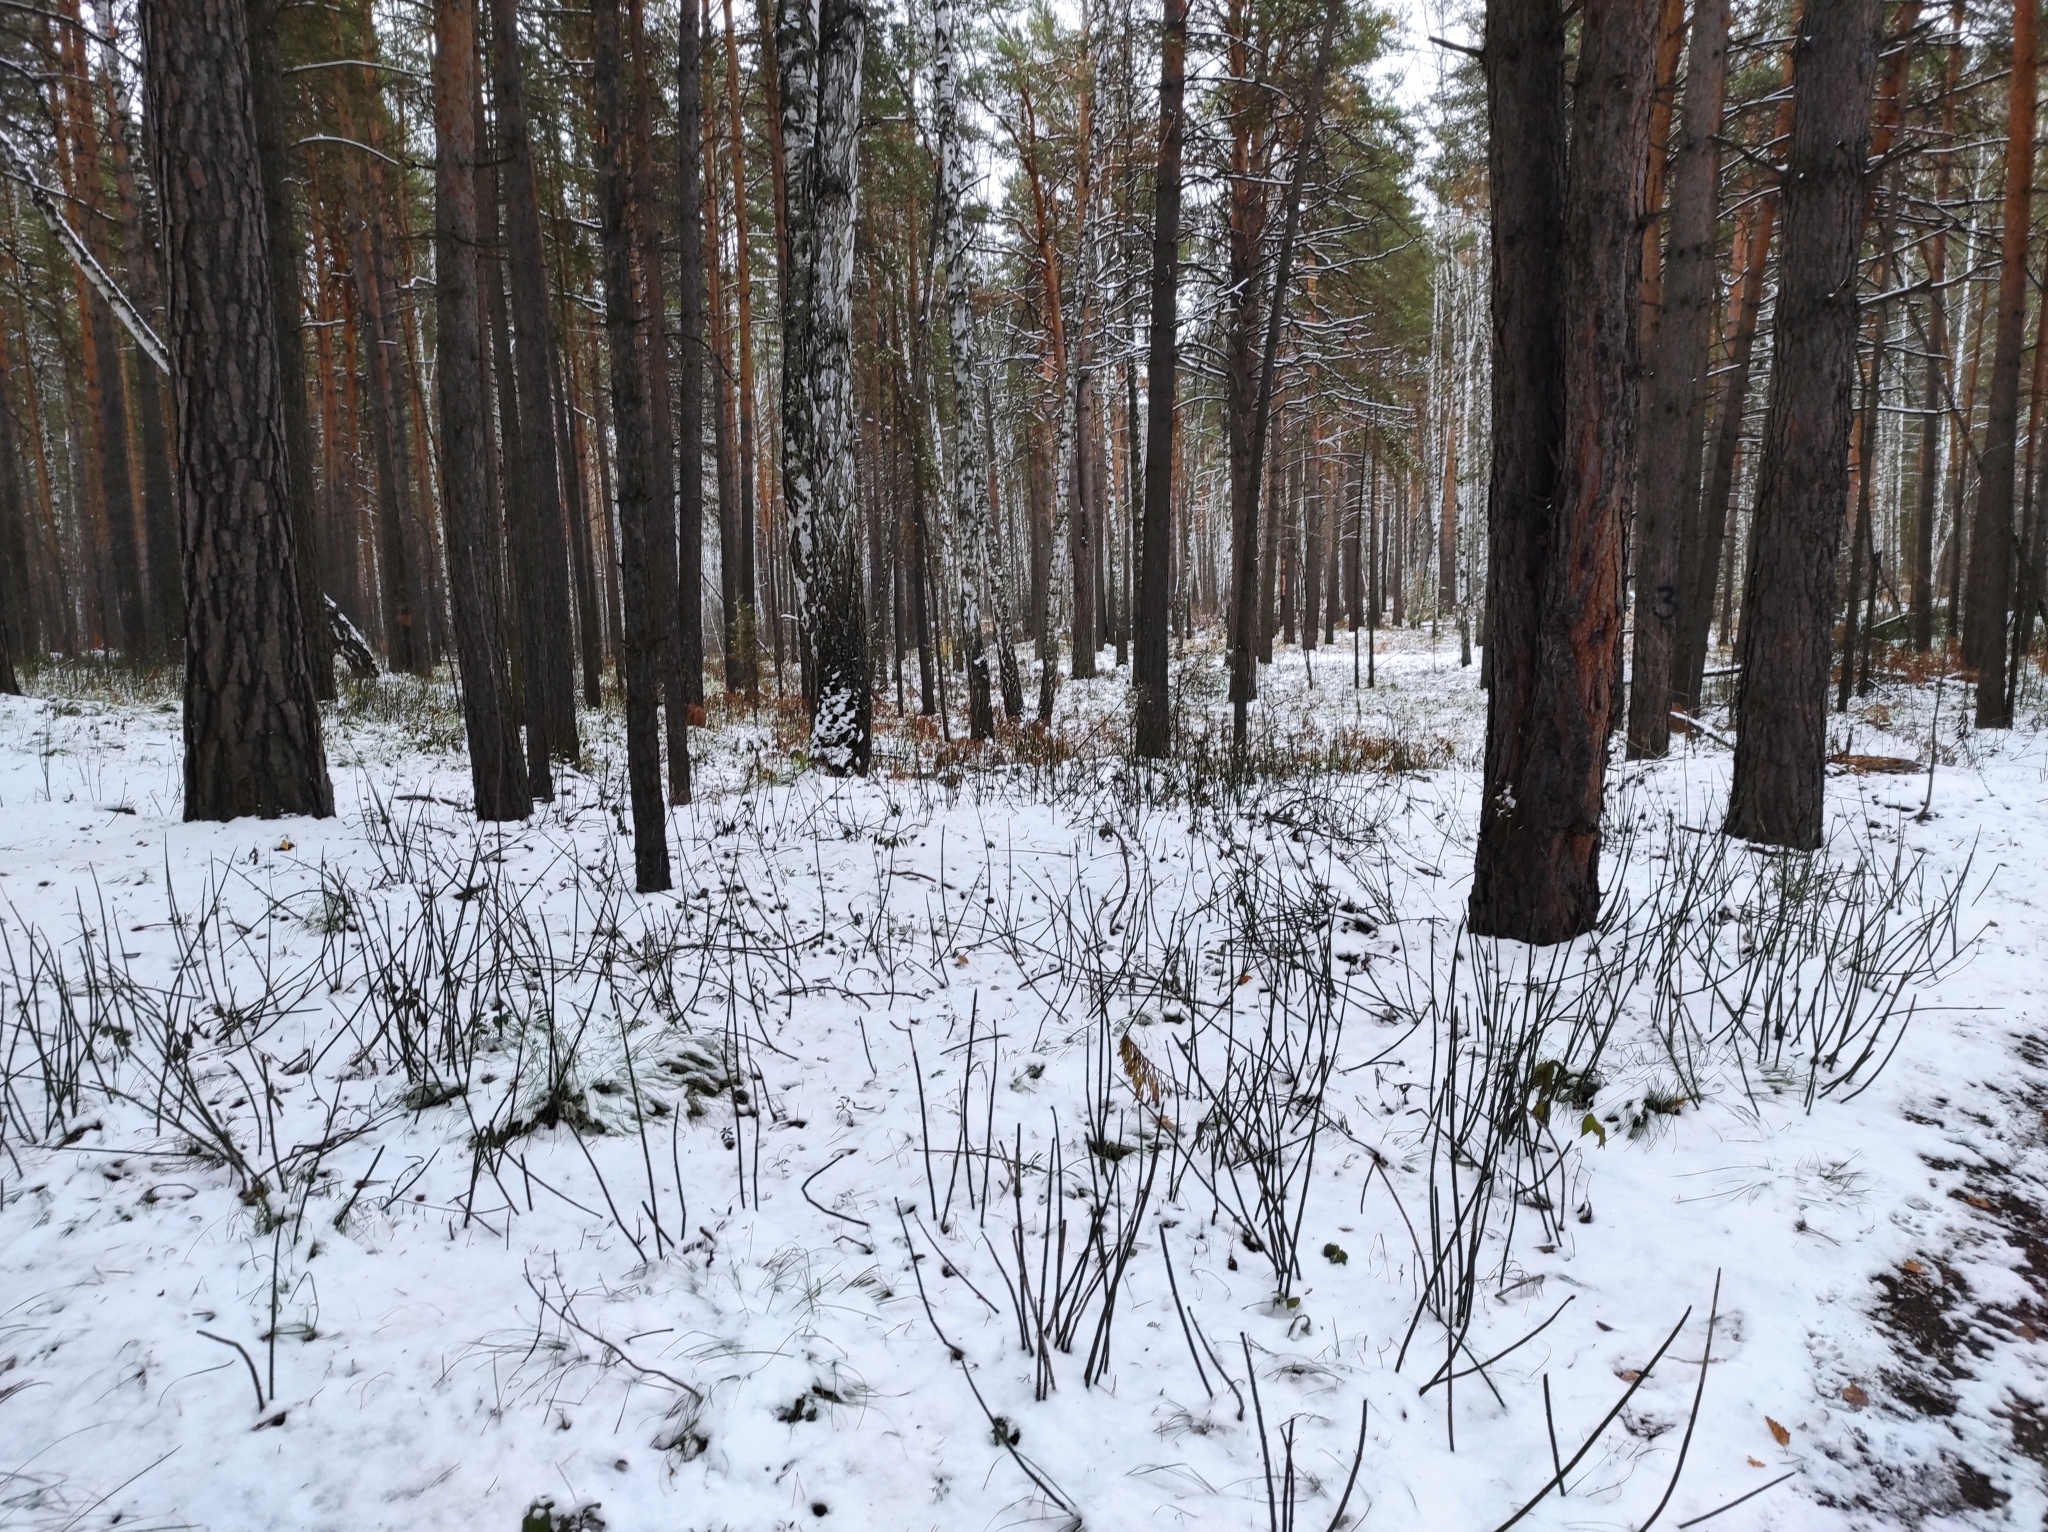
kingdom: Plantae
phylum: Tracheophyta
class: Polypodiopsida
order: Equisetales
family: Equisetaceae
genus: Equisetum
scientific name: Equisetum hyemale
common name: Rough horsetail
